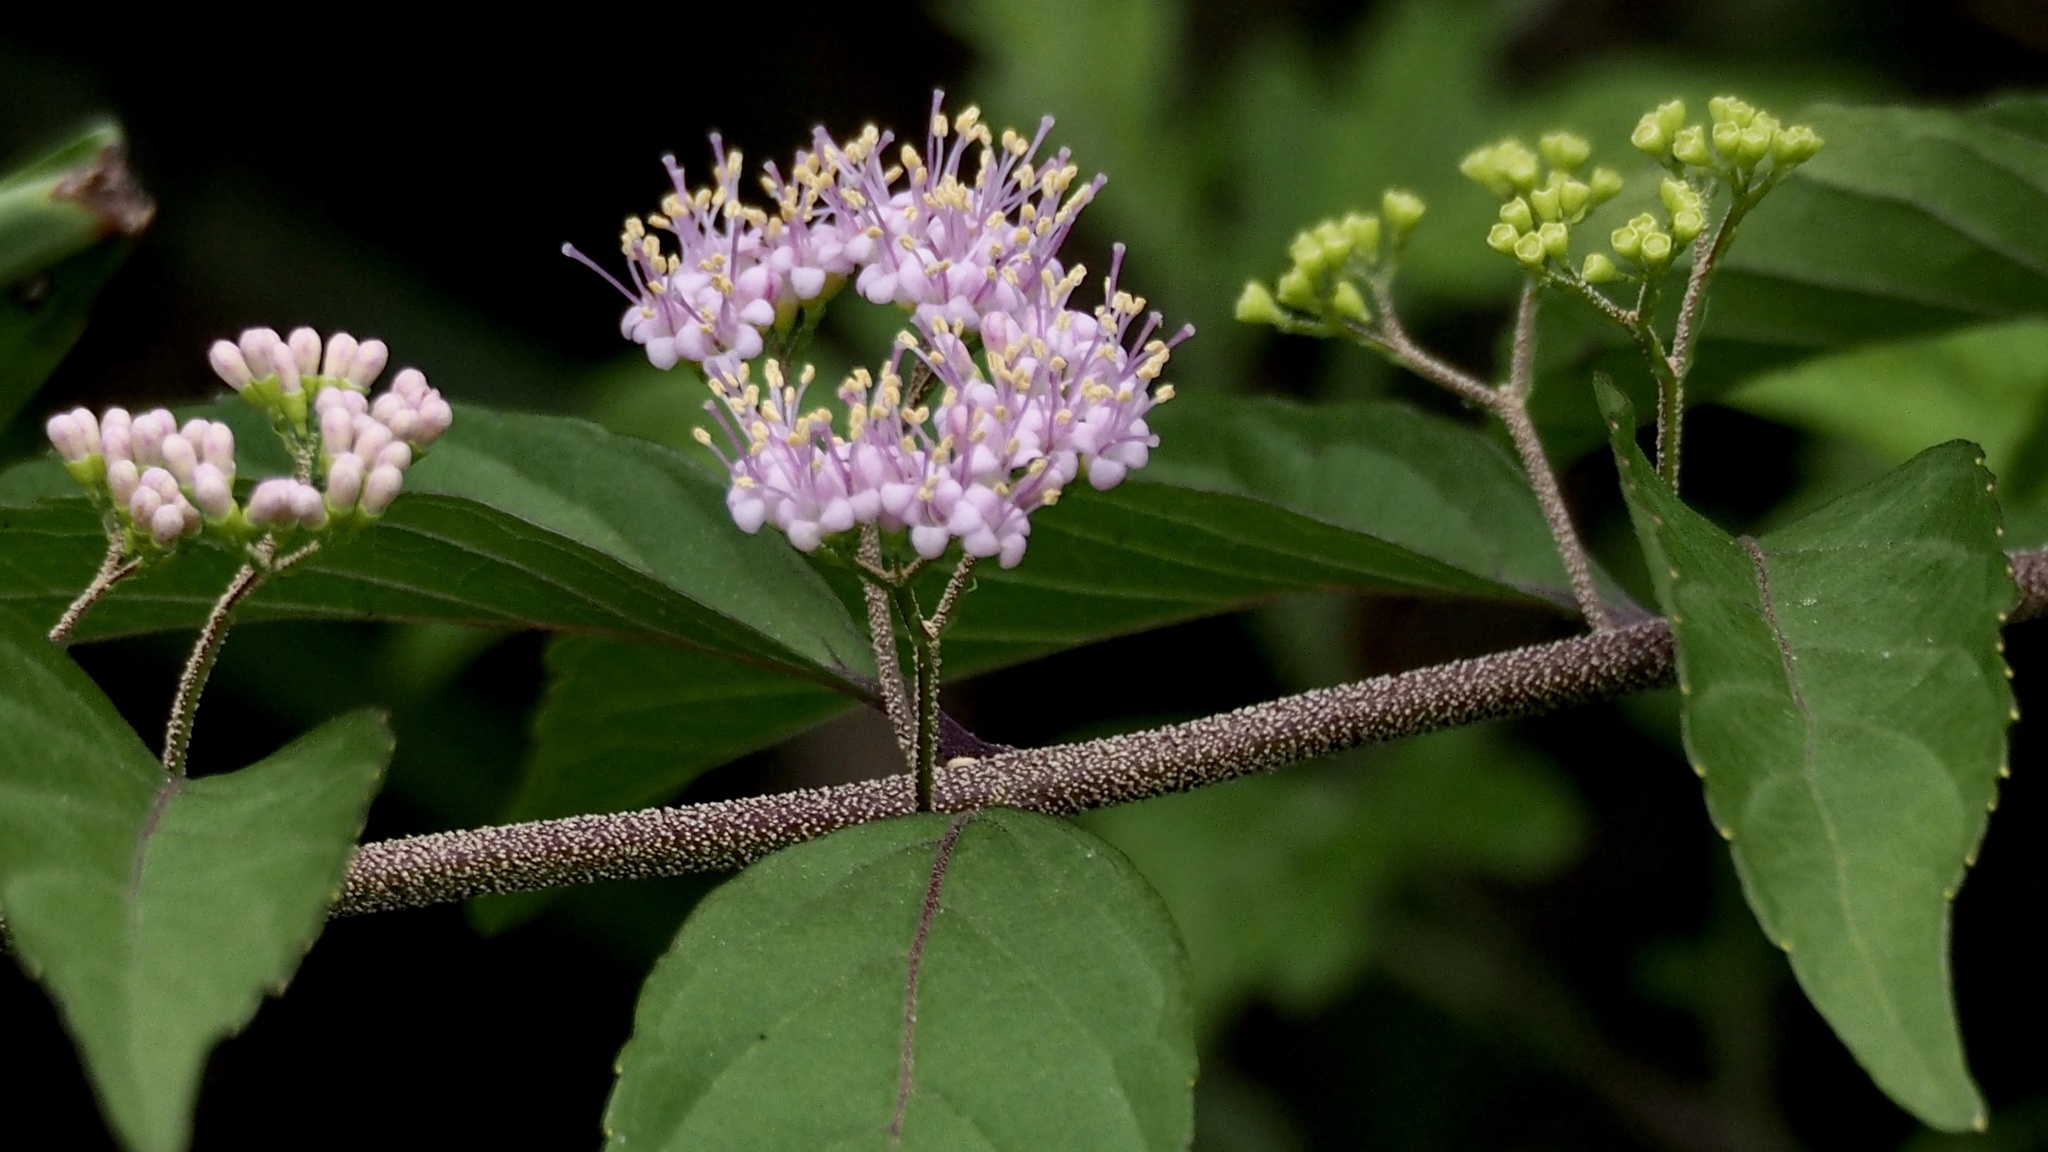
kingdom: Plantae
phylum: Tracheophyta
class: Magnoliopsida
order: Lamiales
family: Lamiaceae
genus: Callicarpa
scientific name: Callicarpa dichotoma
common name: Purple beauty-berry
